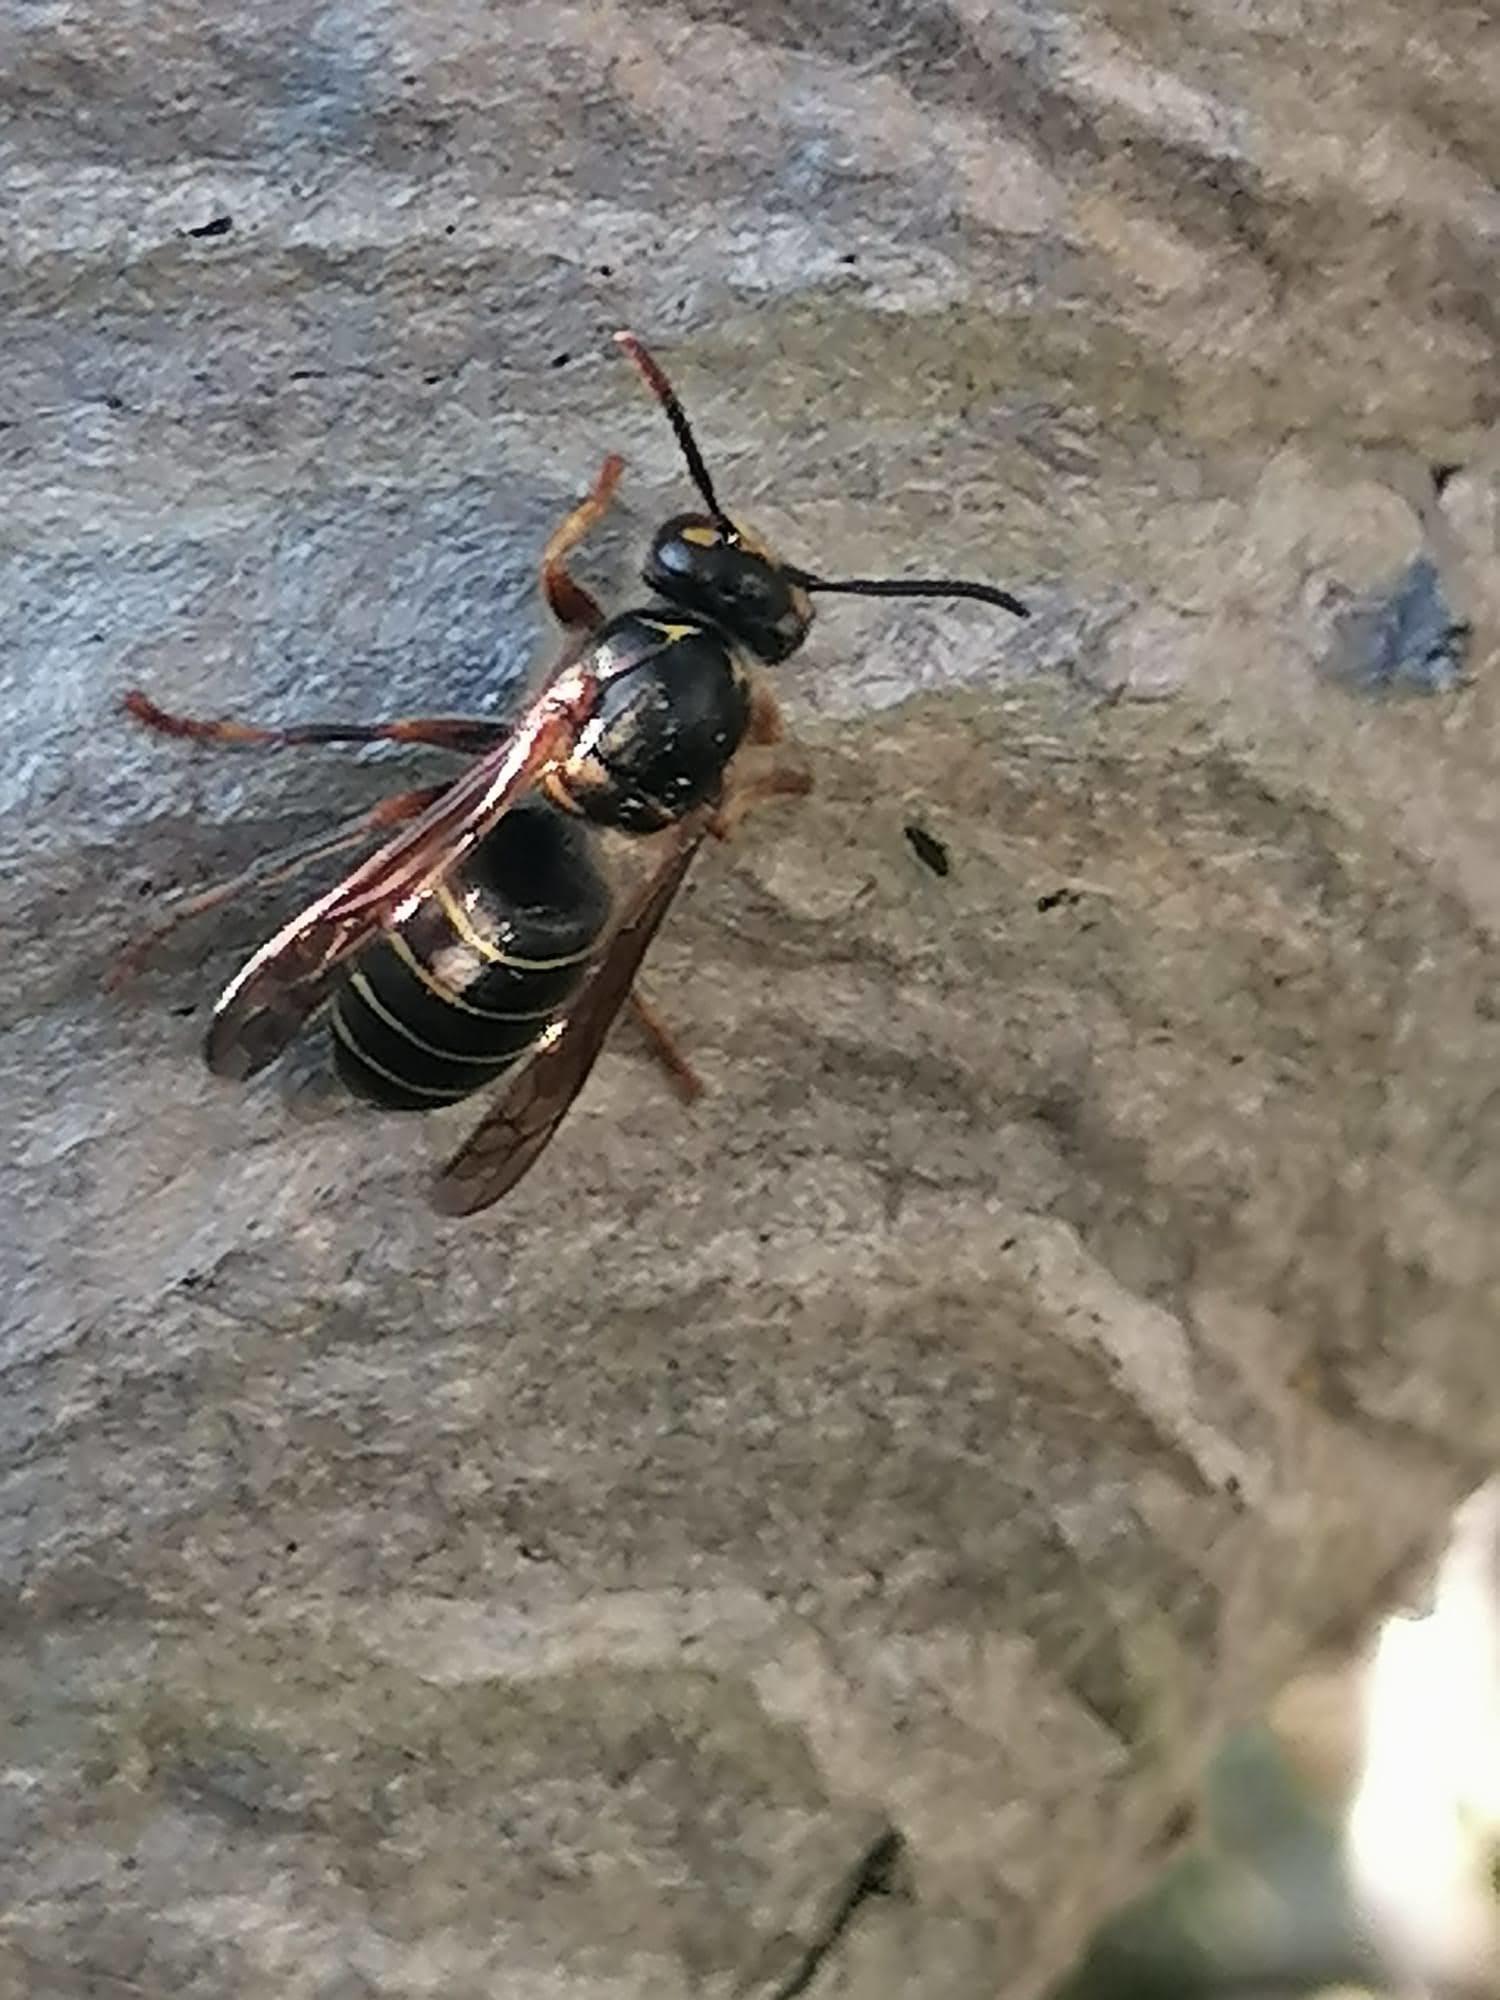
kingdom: Animalia
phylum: Arthropoda
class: Insecta
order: Hymenoptera
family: Vespidae
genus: Dolichovespula
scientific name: Dolichovespula media
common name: Median wasp
